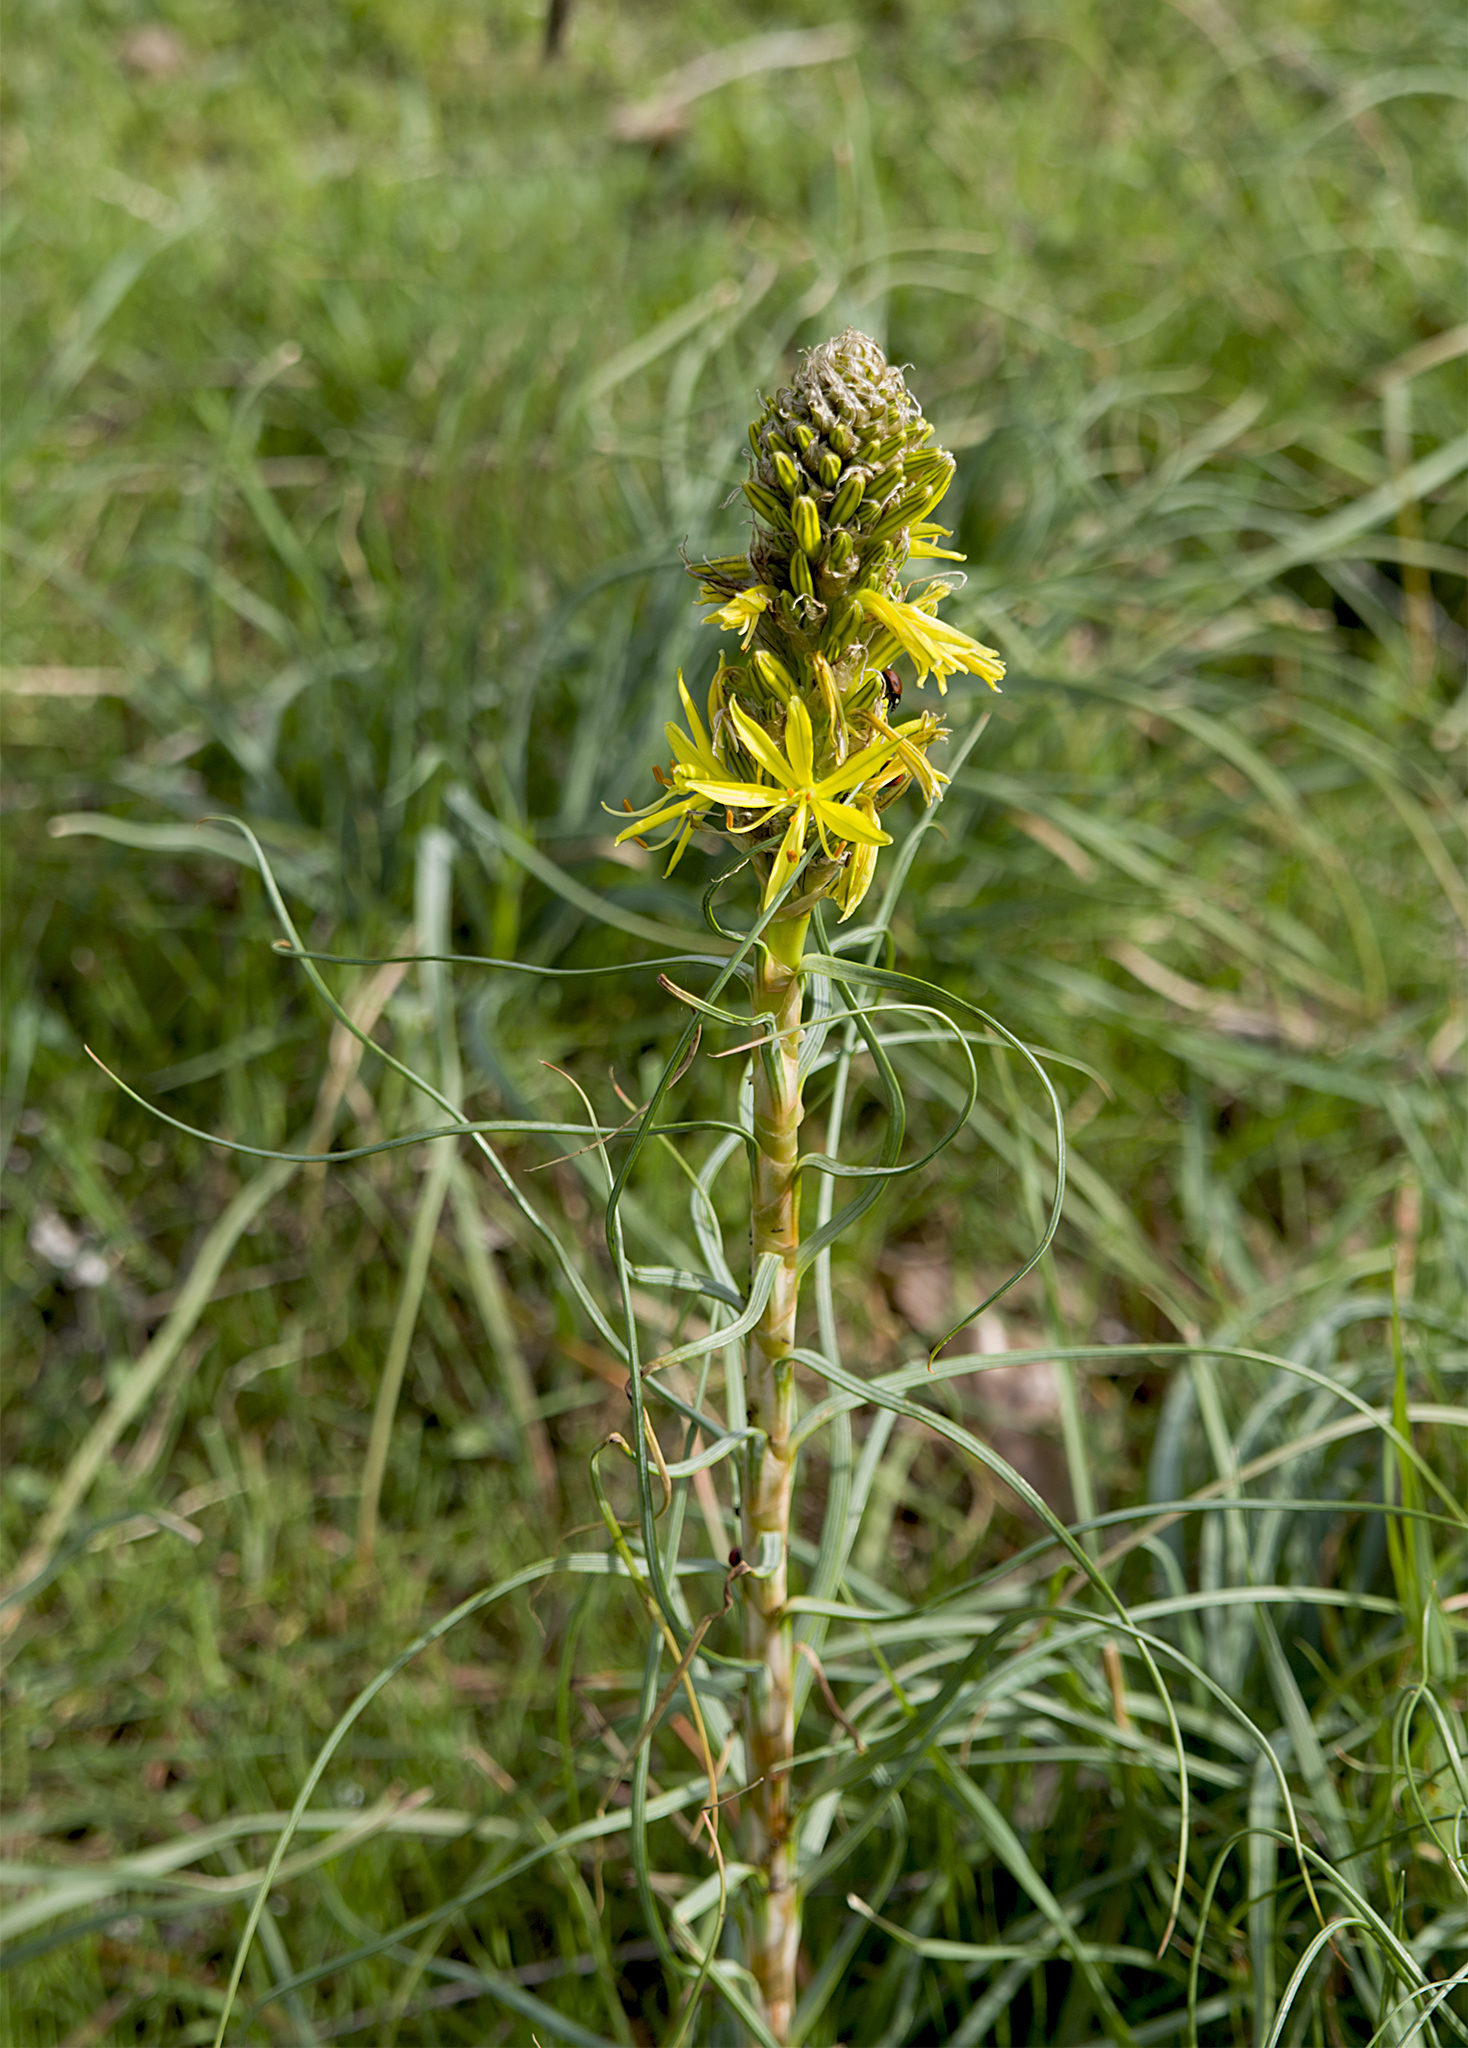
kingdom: Plantae
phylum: Tracheophyta
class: Liliopsida
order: Asparagales
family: Asphodelaceae
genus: Asphodeline
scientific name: Asphodeline lutea
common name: Yellow asphodel
